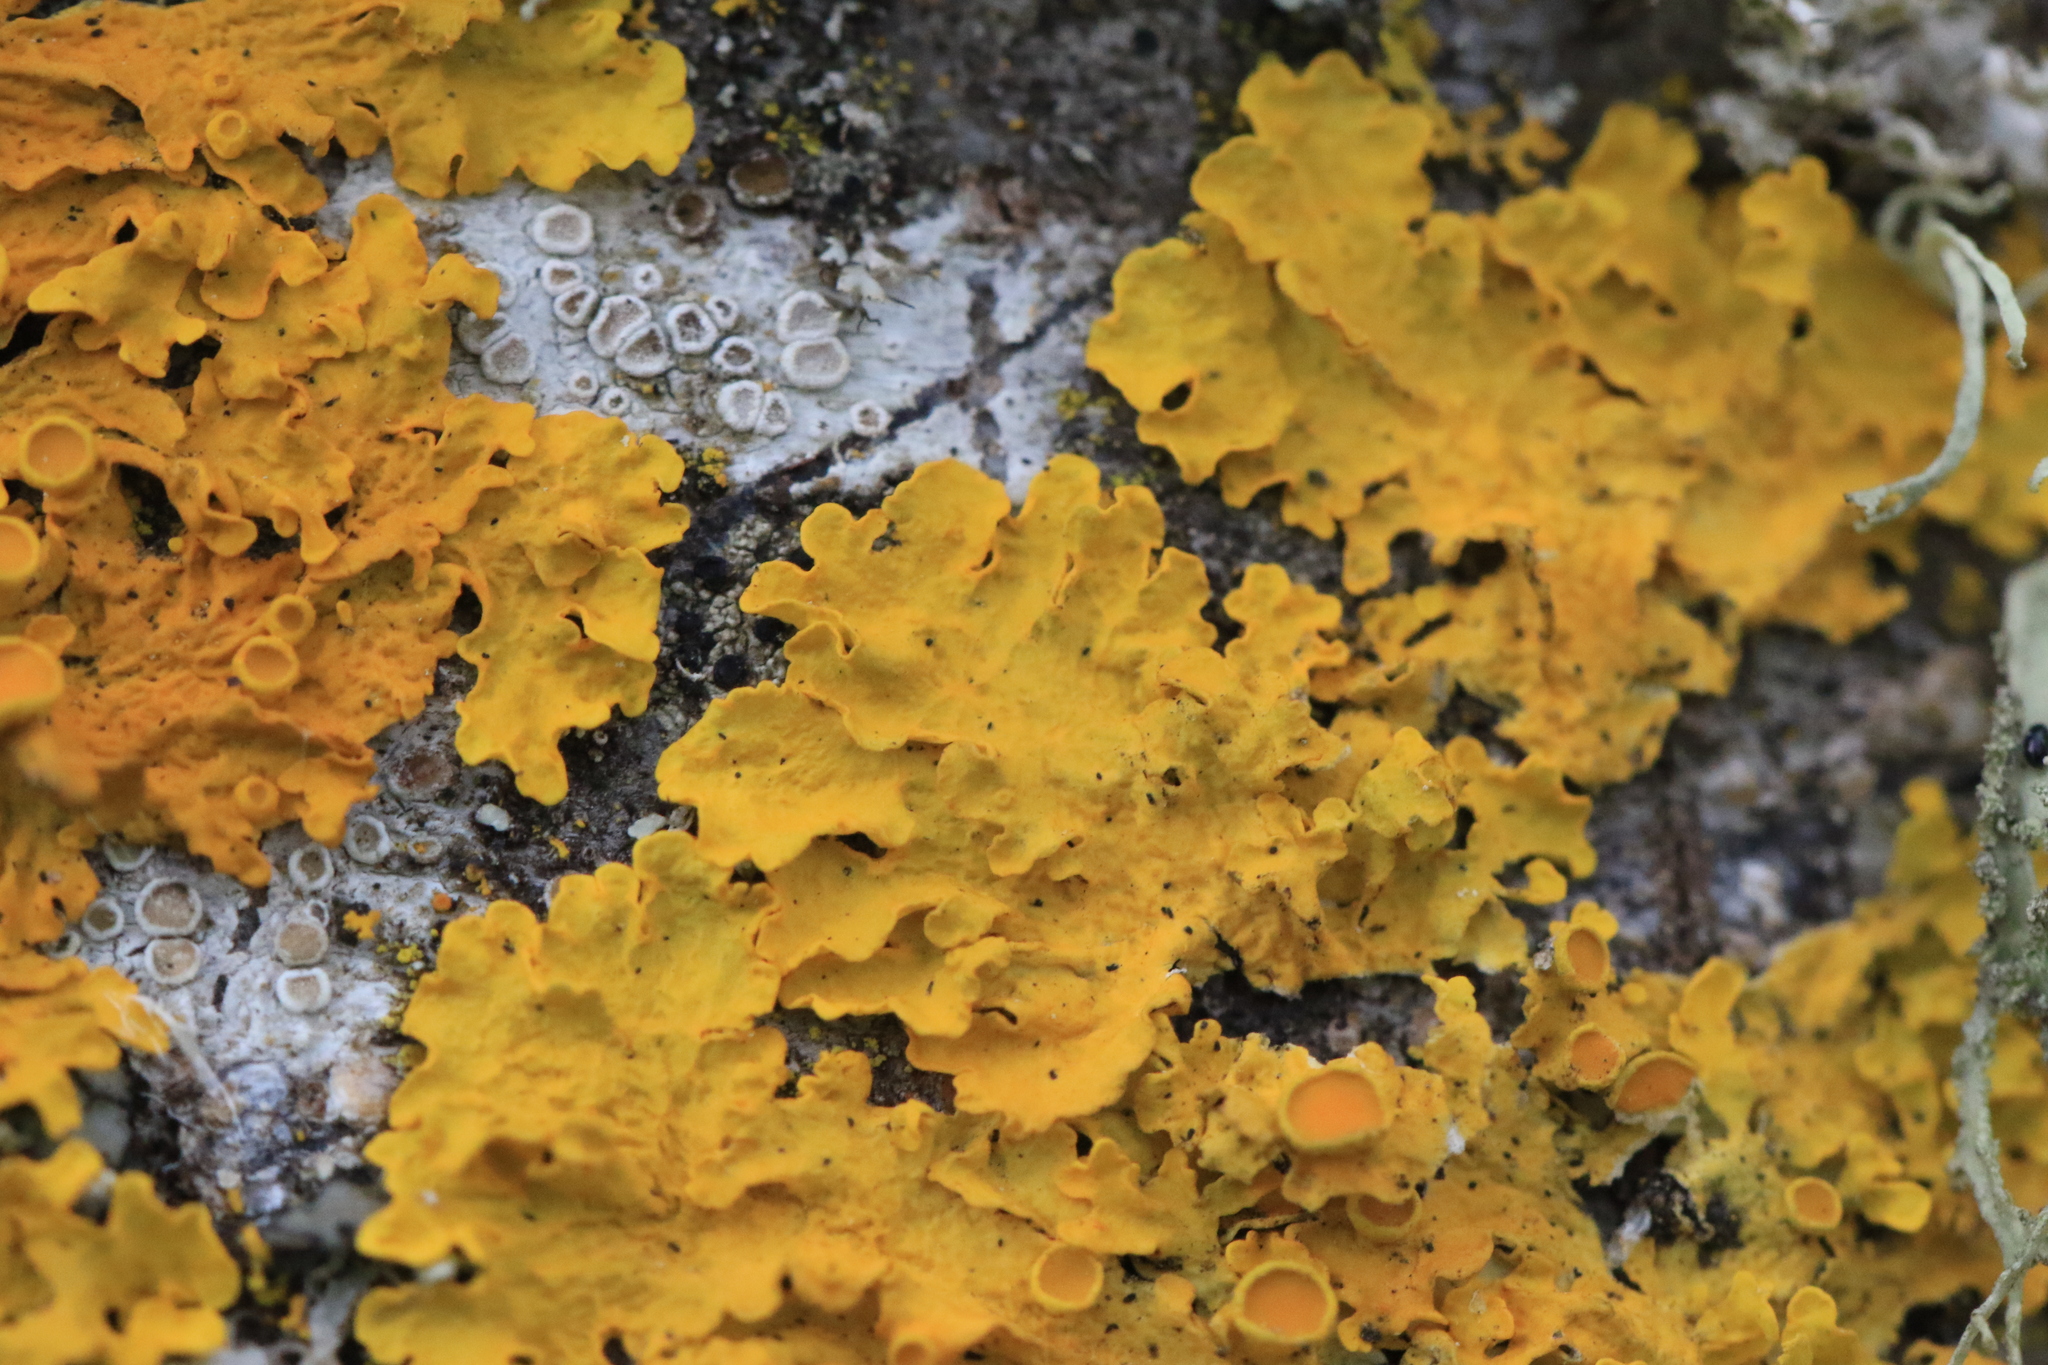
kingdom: Fungi
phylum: Ascomycota
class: Lecanoromycetes
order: Teloschistales
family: Teloschistaceae
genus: Xanthoria
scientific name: Xanthoria parietina
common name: Common orange lichen
